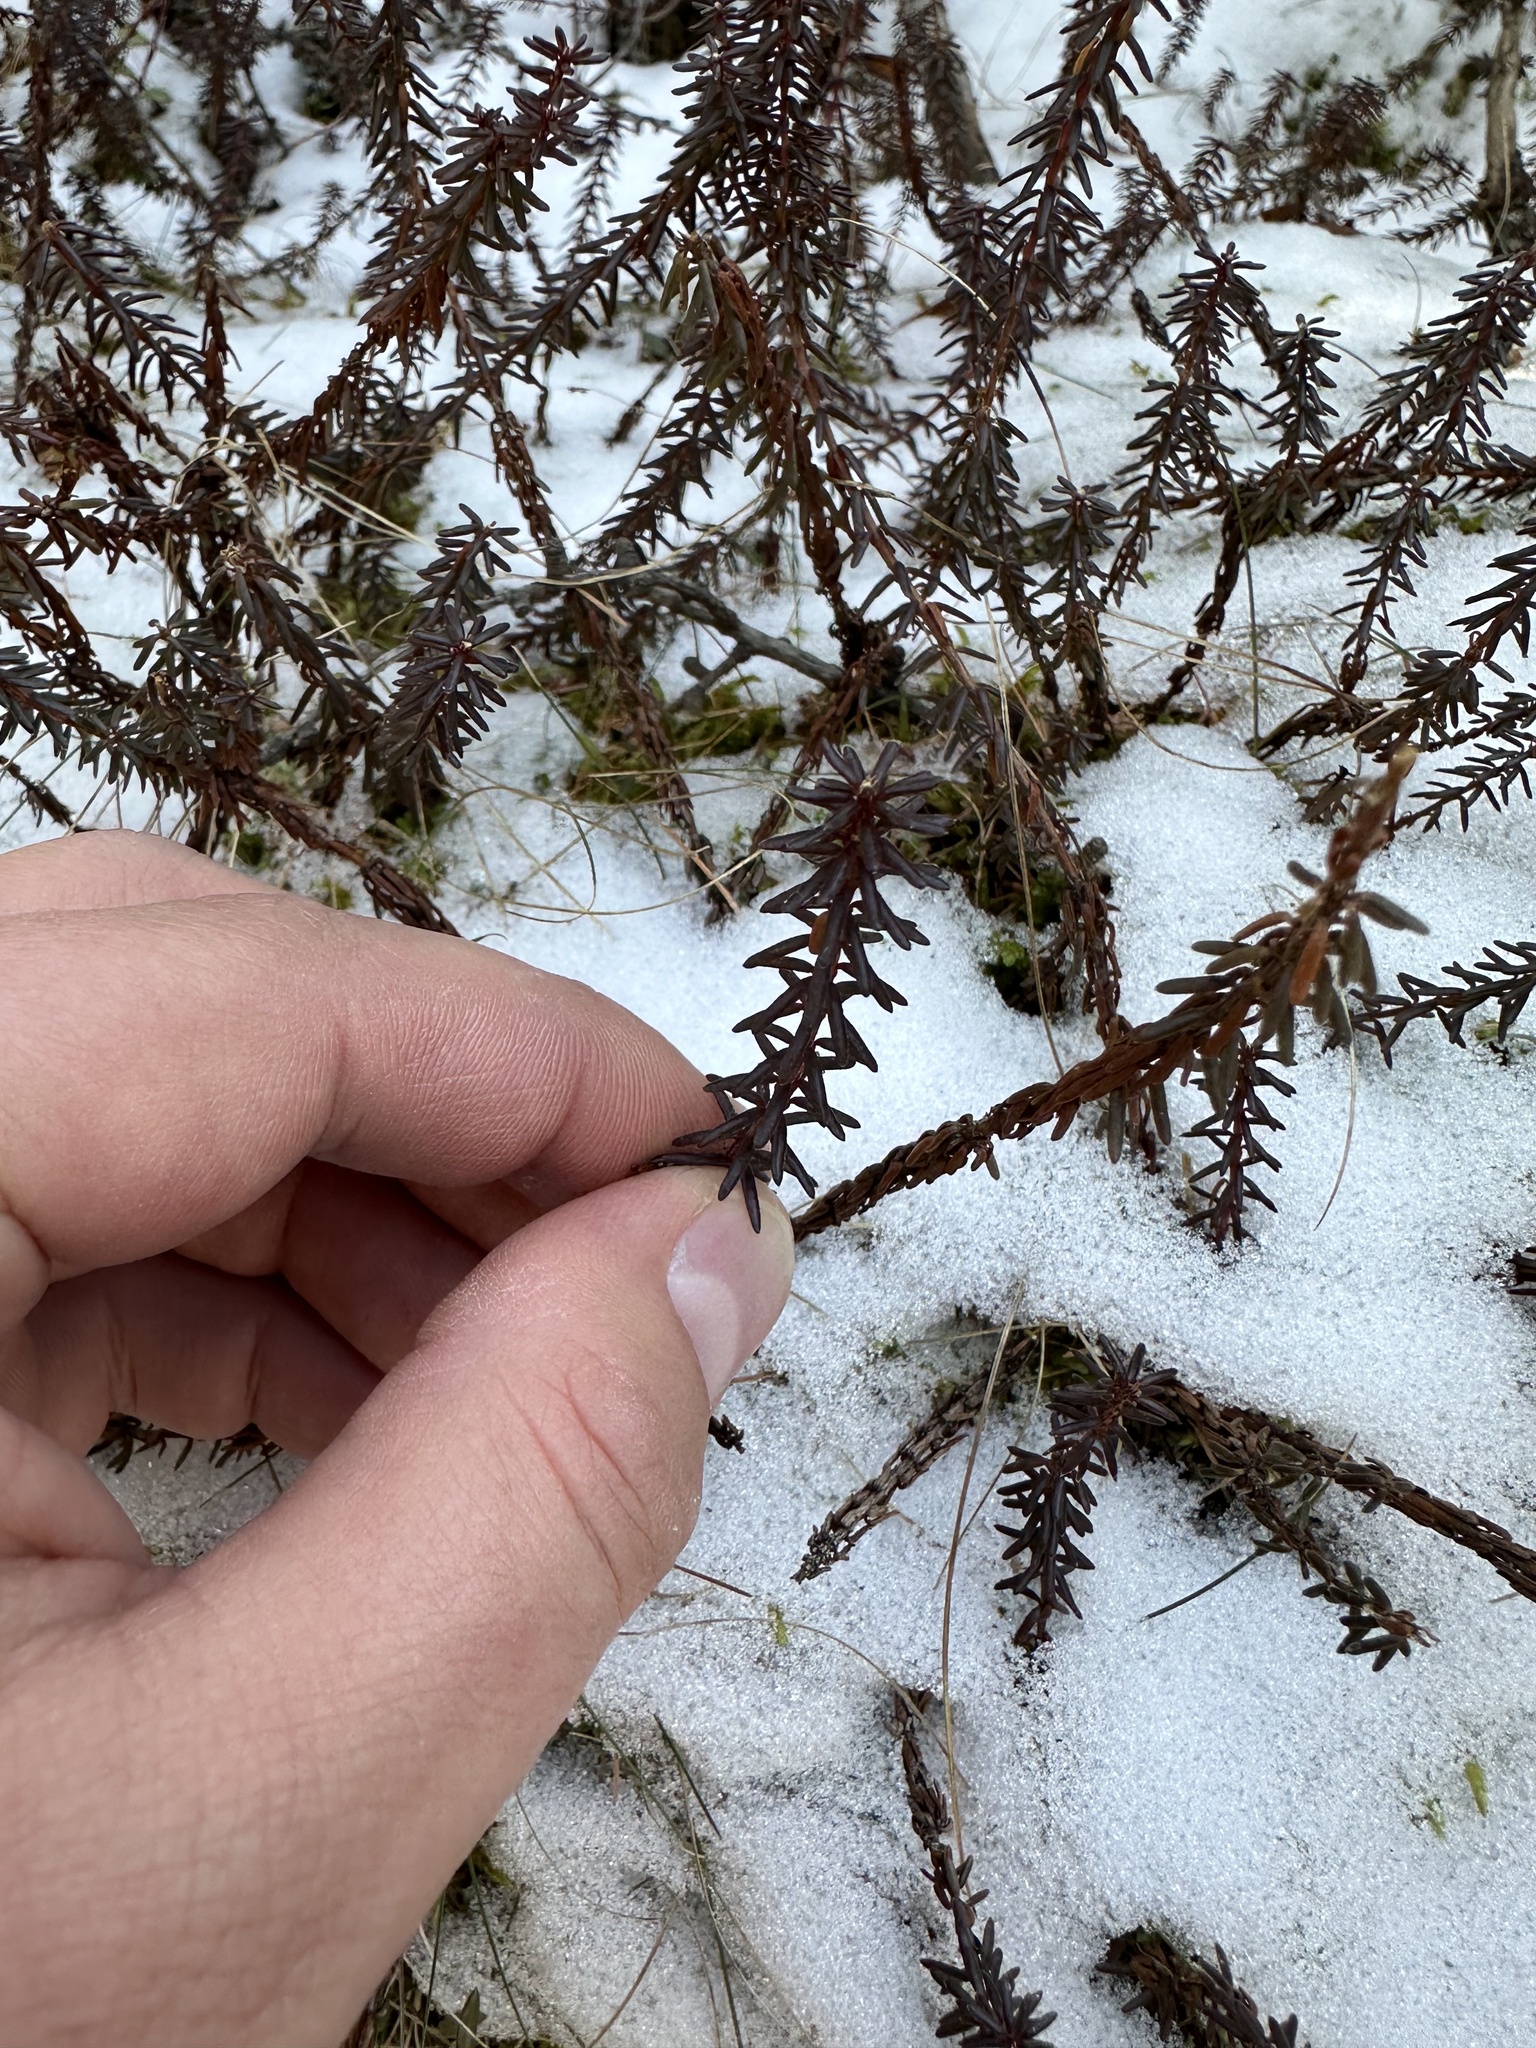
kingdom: Plantae
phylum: Tracheophyta
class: Magnoliopsida
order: Ericales
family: Ericaceae
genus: Empetrum
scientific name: Empetrum nigrum
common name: Black crowberry
